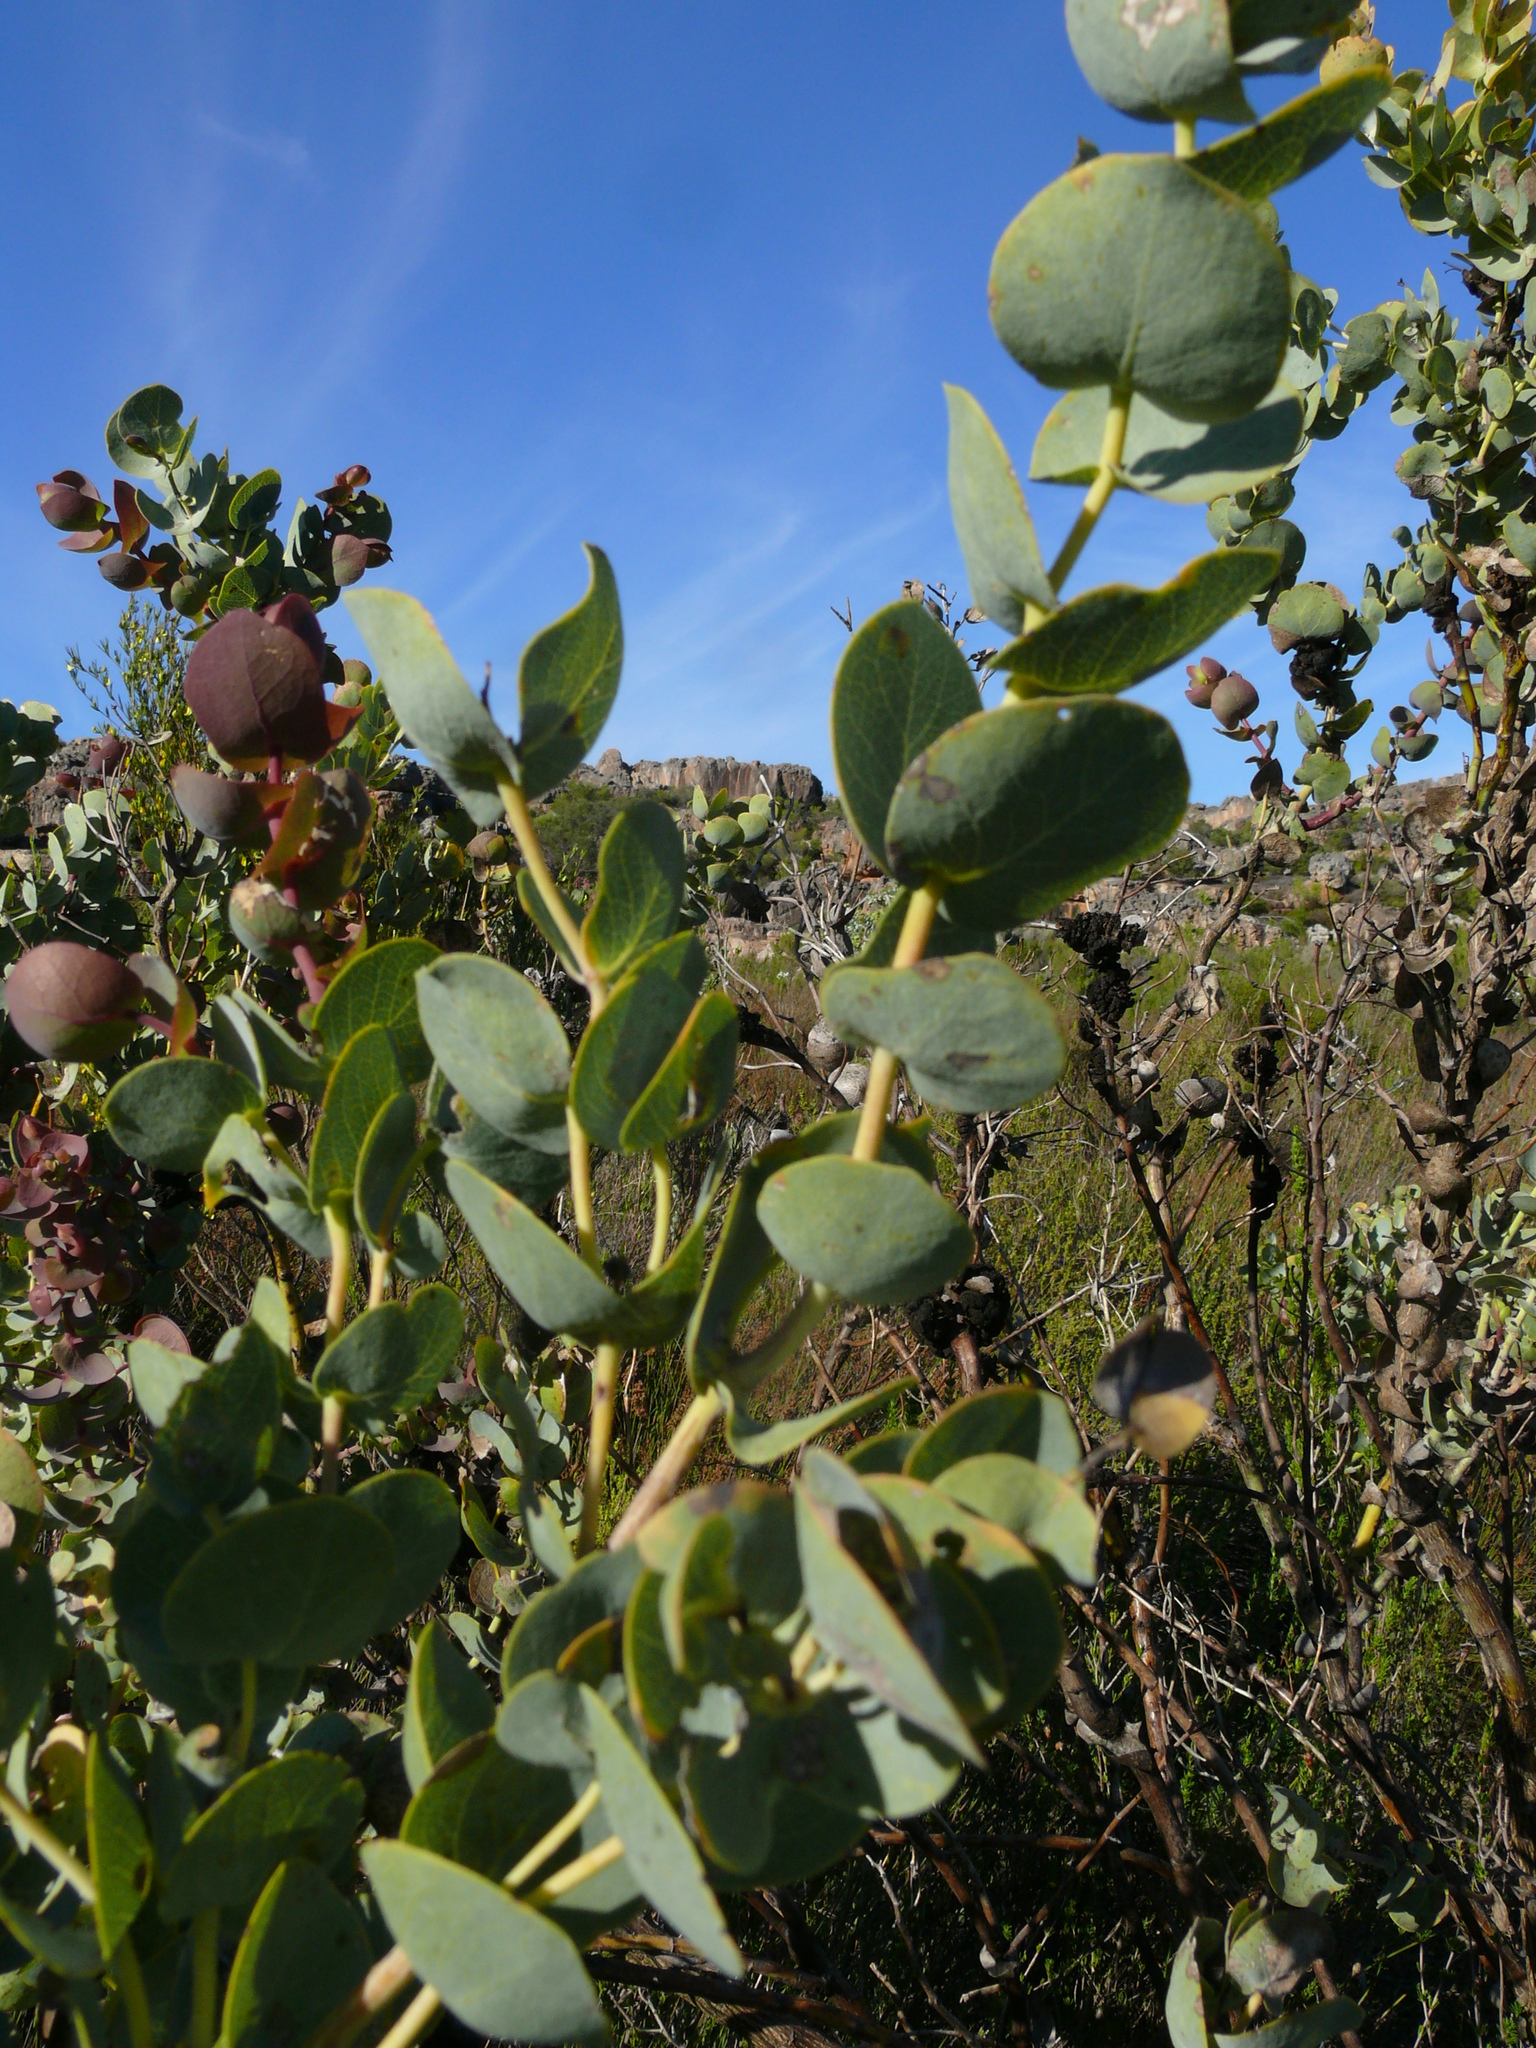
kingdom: Plantae
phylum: Tracheophyta
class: Magnoliopsida
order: Fabales
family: Fabaceae
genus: Rafnia
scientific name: Rafnia amplexicaulis
